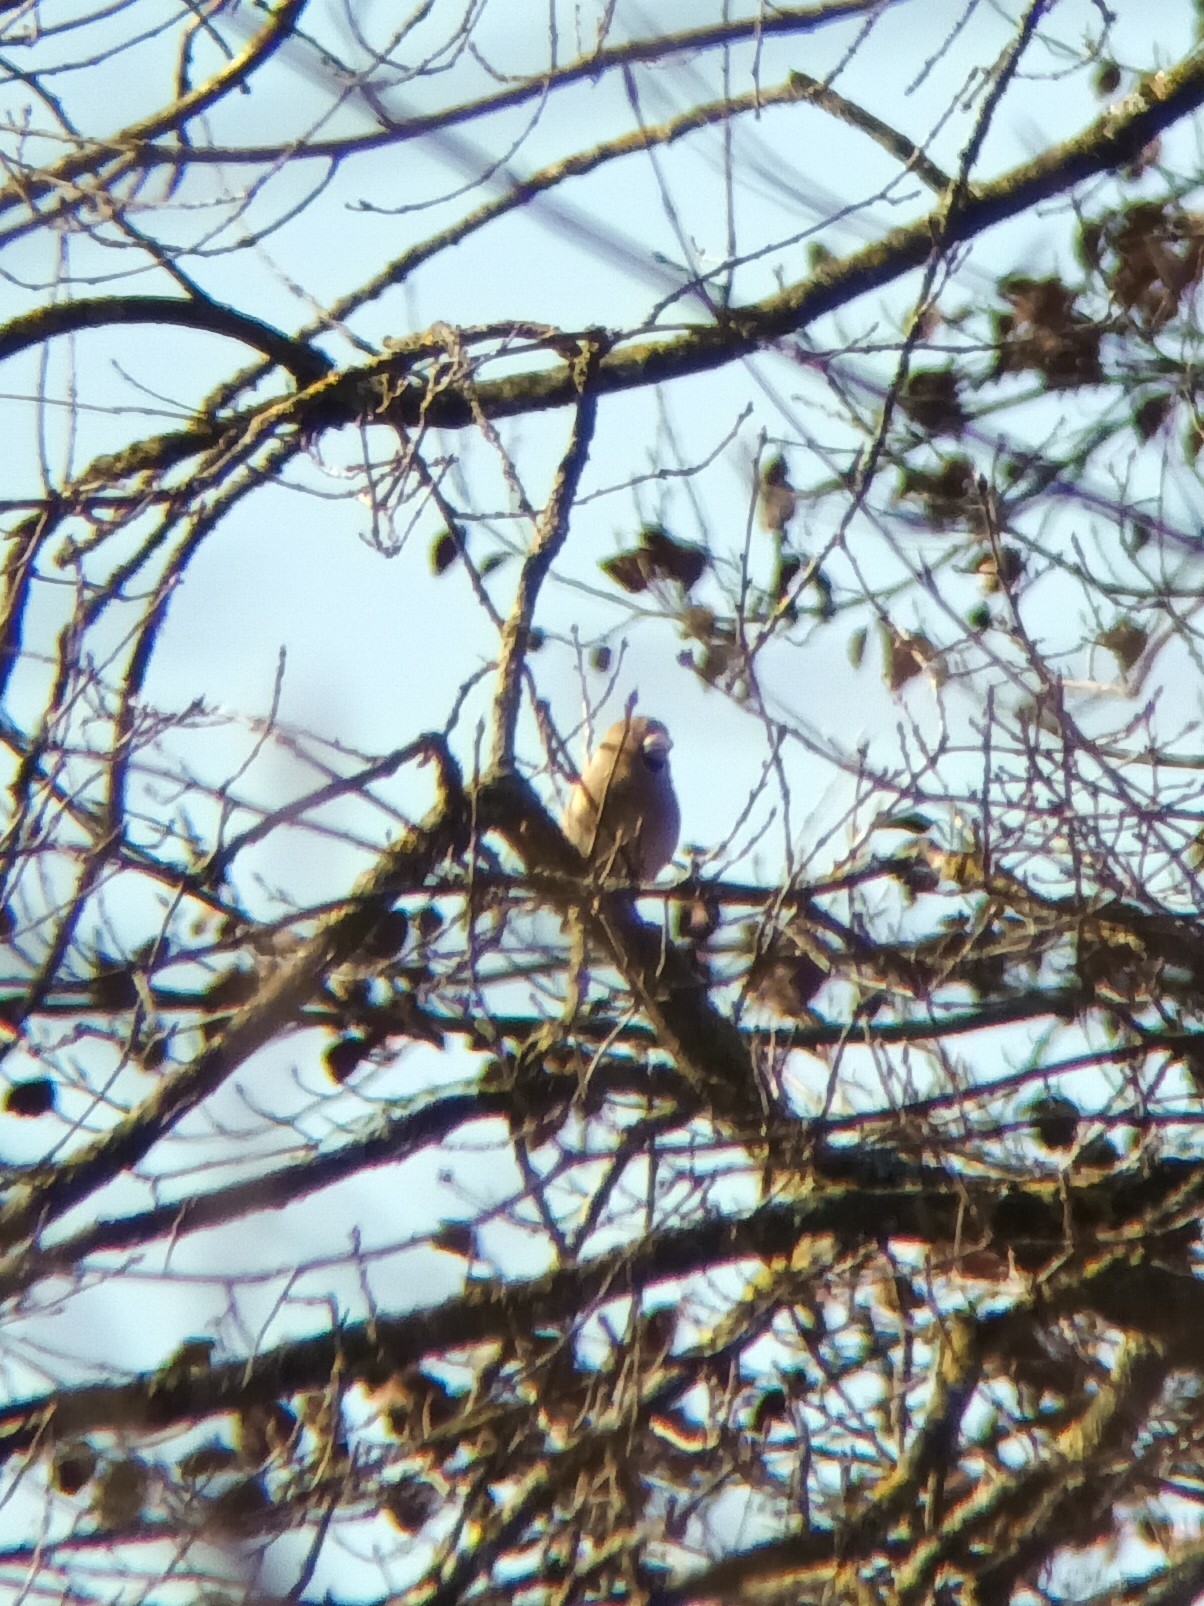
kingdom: Animalia
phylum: Chordata
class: Aves
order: Passeriformes
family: Fringillidae
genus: Coccothraustes
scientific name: Coccothraustes coccothraustes
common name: Hawfinch
